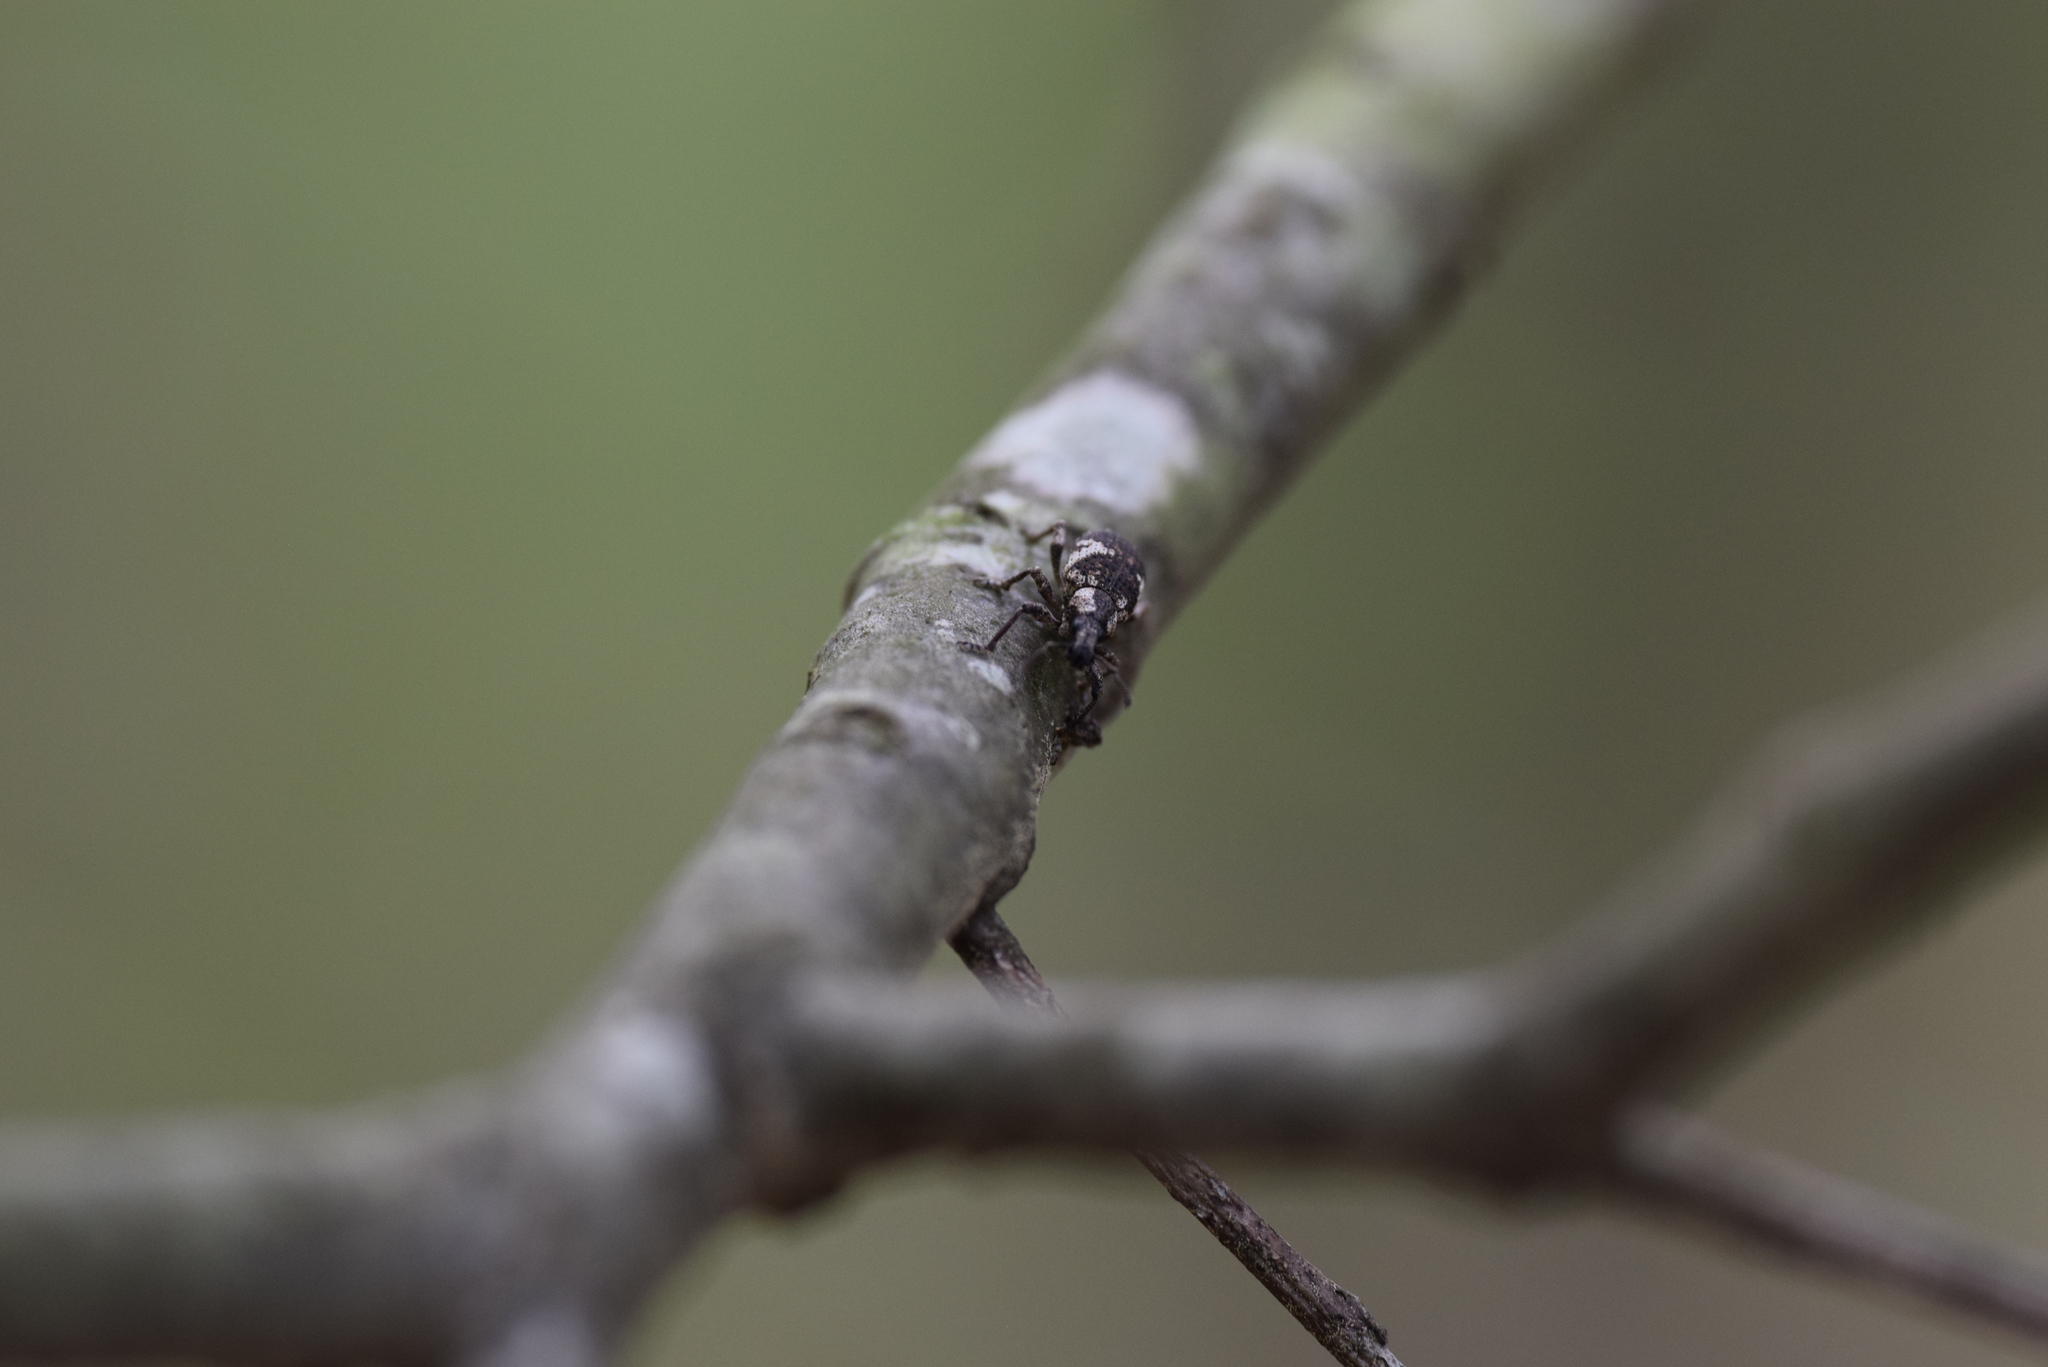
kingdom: Animalia
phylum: Arthropoda
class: Insecta
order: Coleoptera
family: Curculionidae
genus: Omileus
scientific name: Omileus epicaeroides
